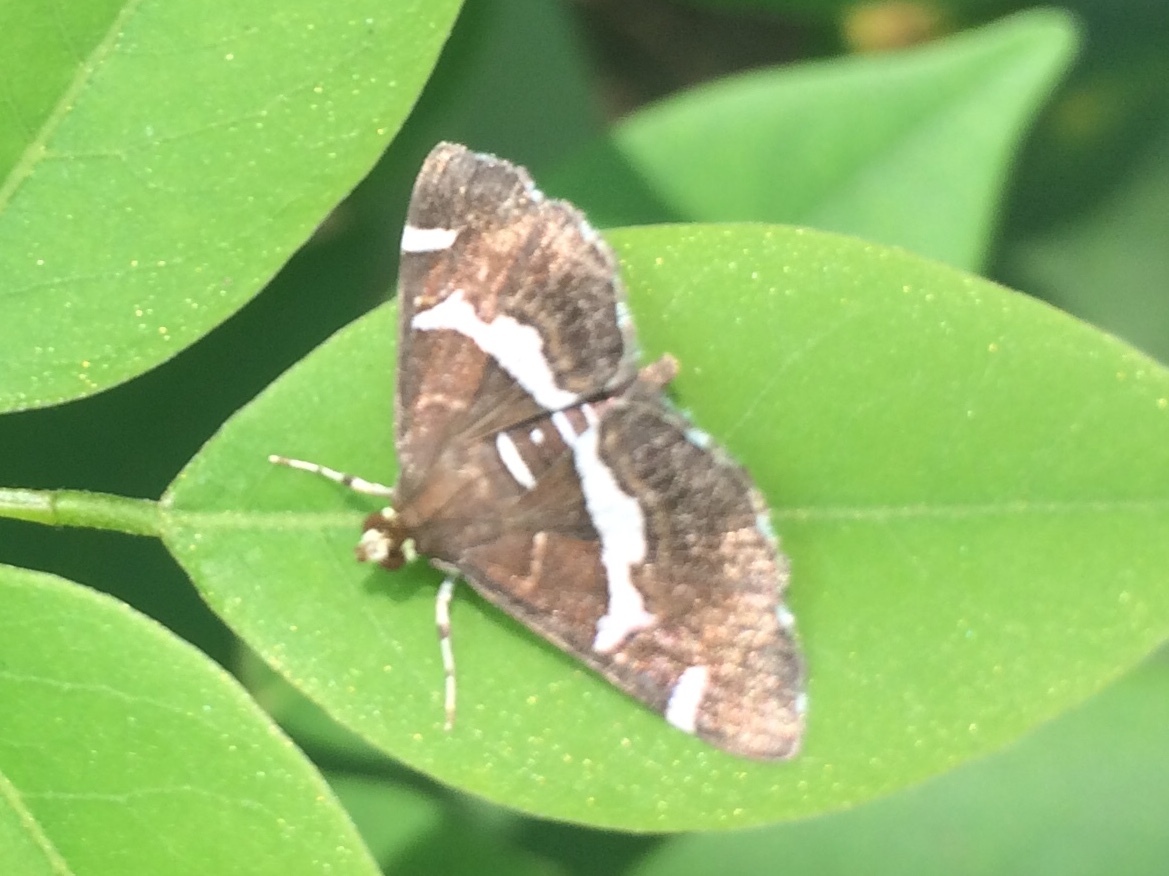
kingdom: Animalia
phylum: Arthropoda
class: Insecta
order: Lepidoptera
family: Crambidae
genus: Spoladea
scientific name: Spoladea recurvalis
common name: Beet webworm moth
